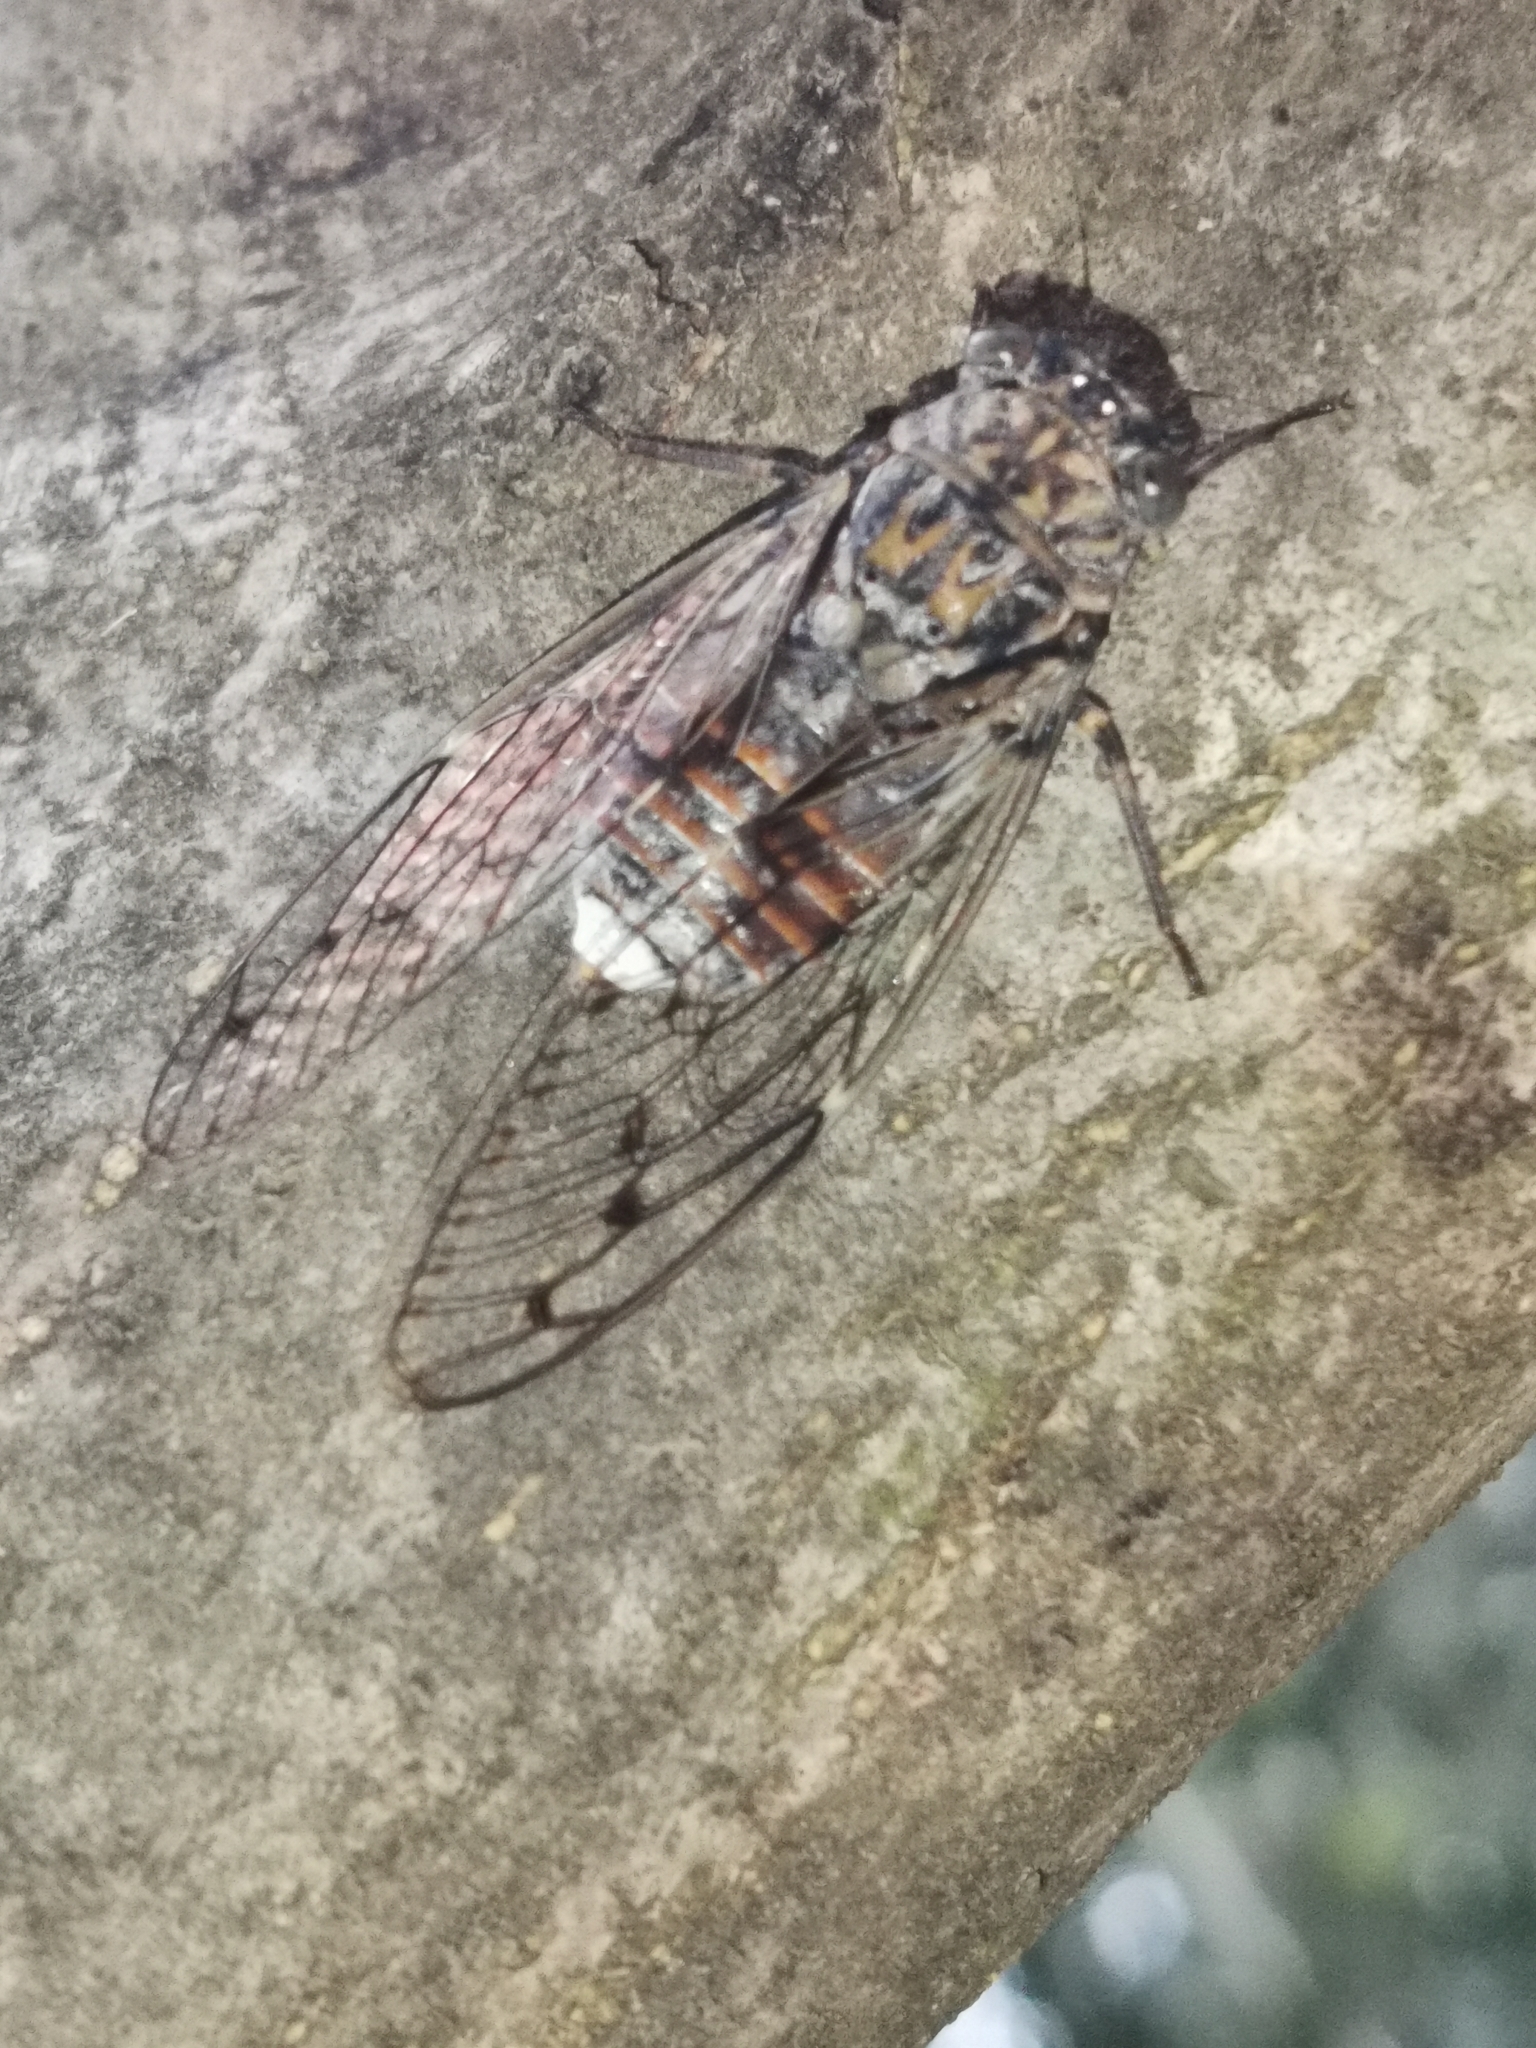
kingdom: Animalia
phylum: Arthropoda
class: Insecta
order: Hemiptera
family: Cicadidae
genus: Cicada
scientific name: Cicada orni
